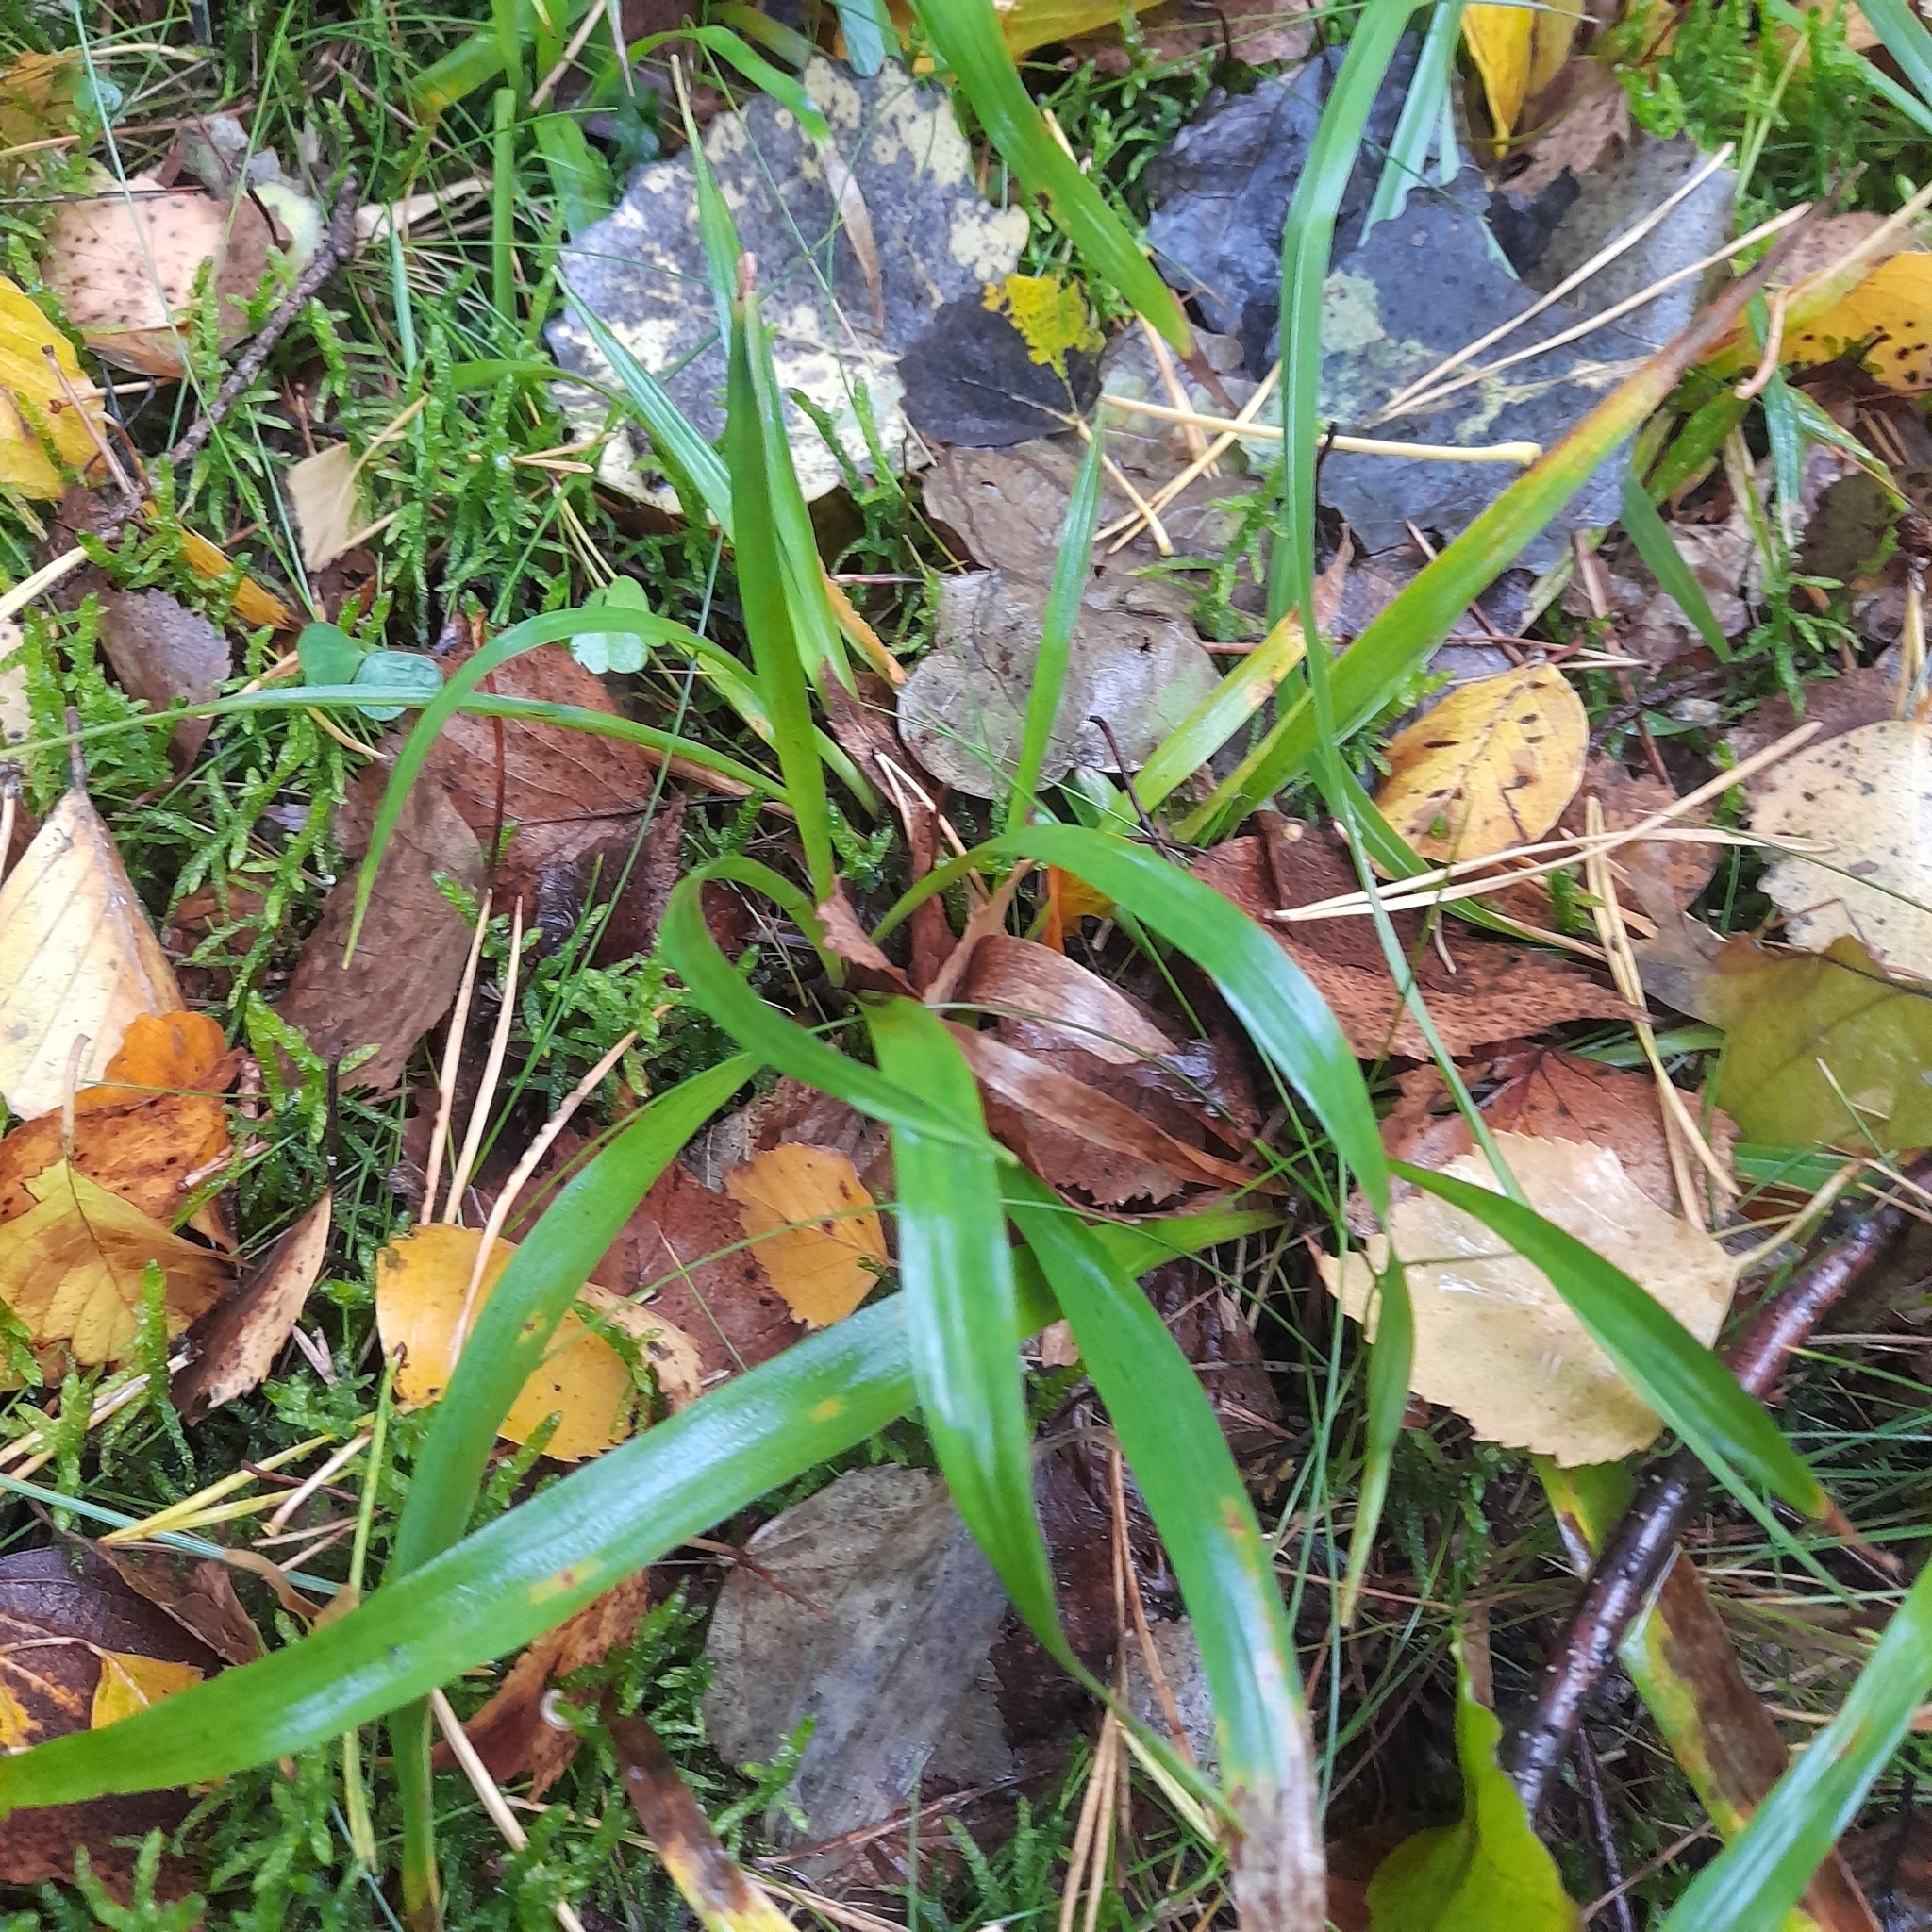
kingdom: Plantae
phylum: Tracheophyta
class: Liliopsida
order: Poales
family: Juncaceae
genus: Luzula
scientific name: Luzula pilosa
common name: Hairy wood-rush
